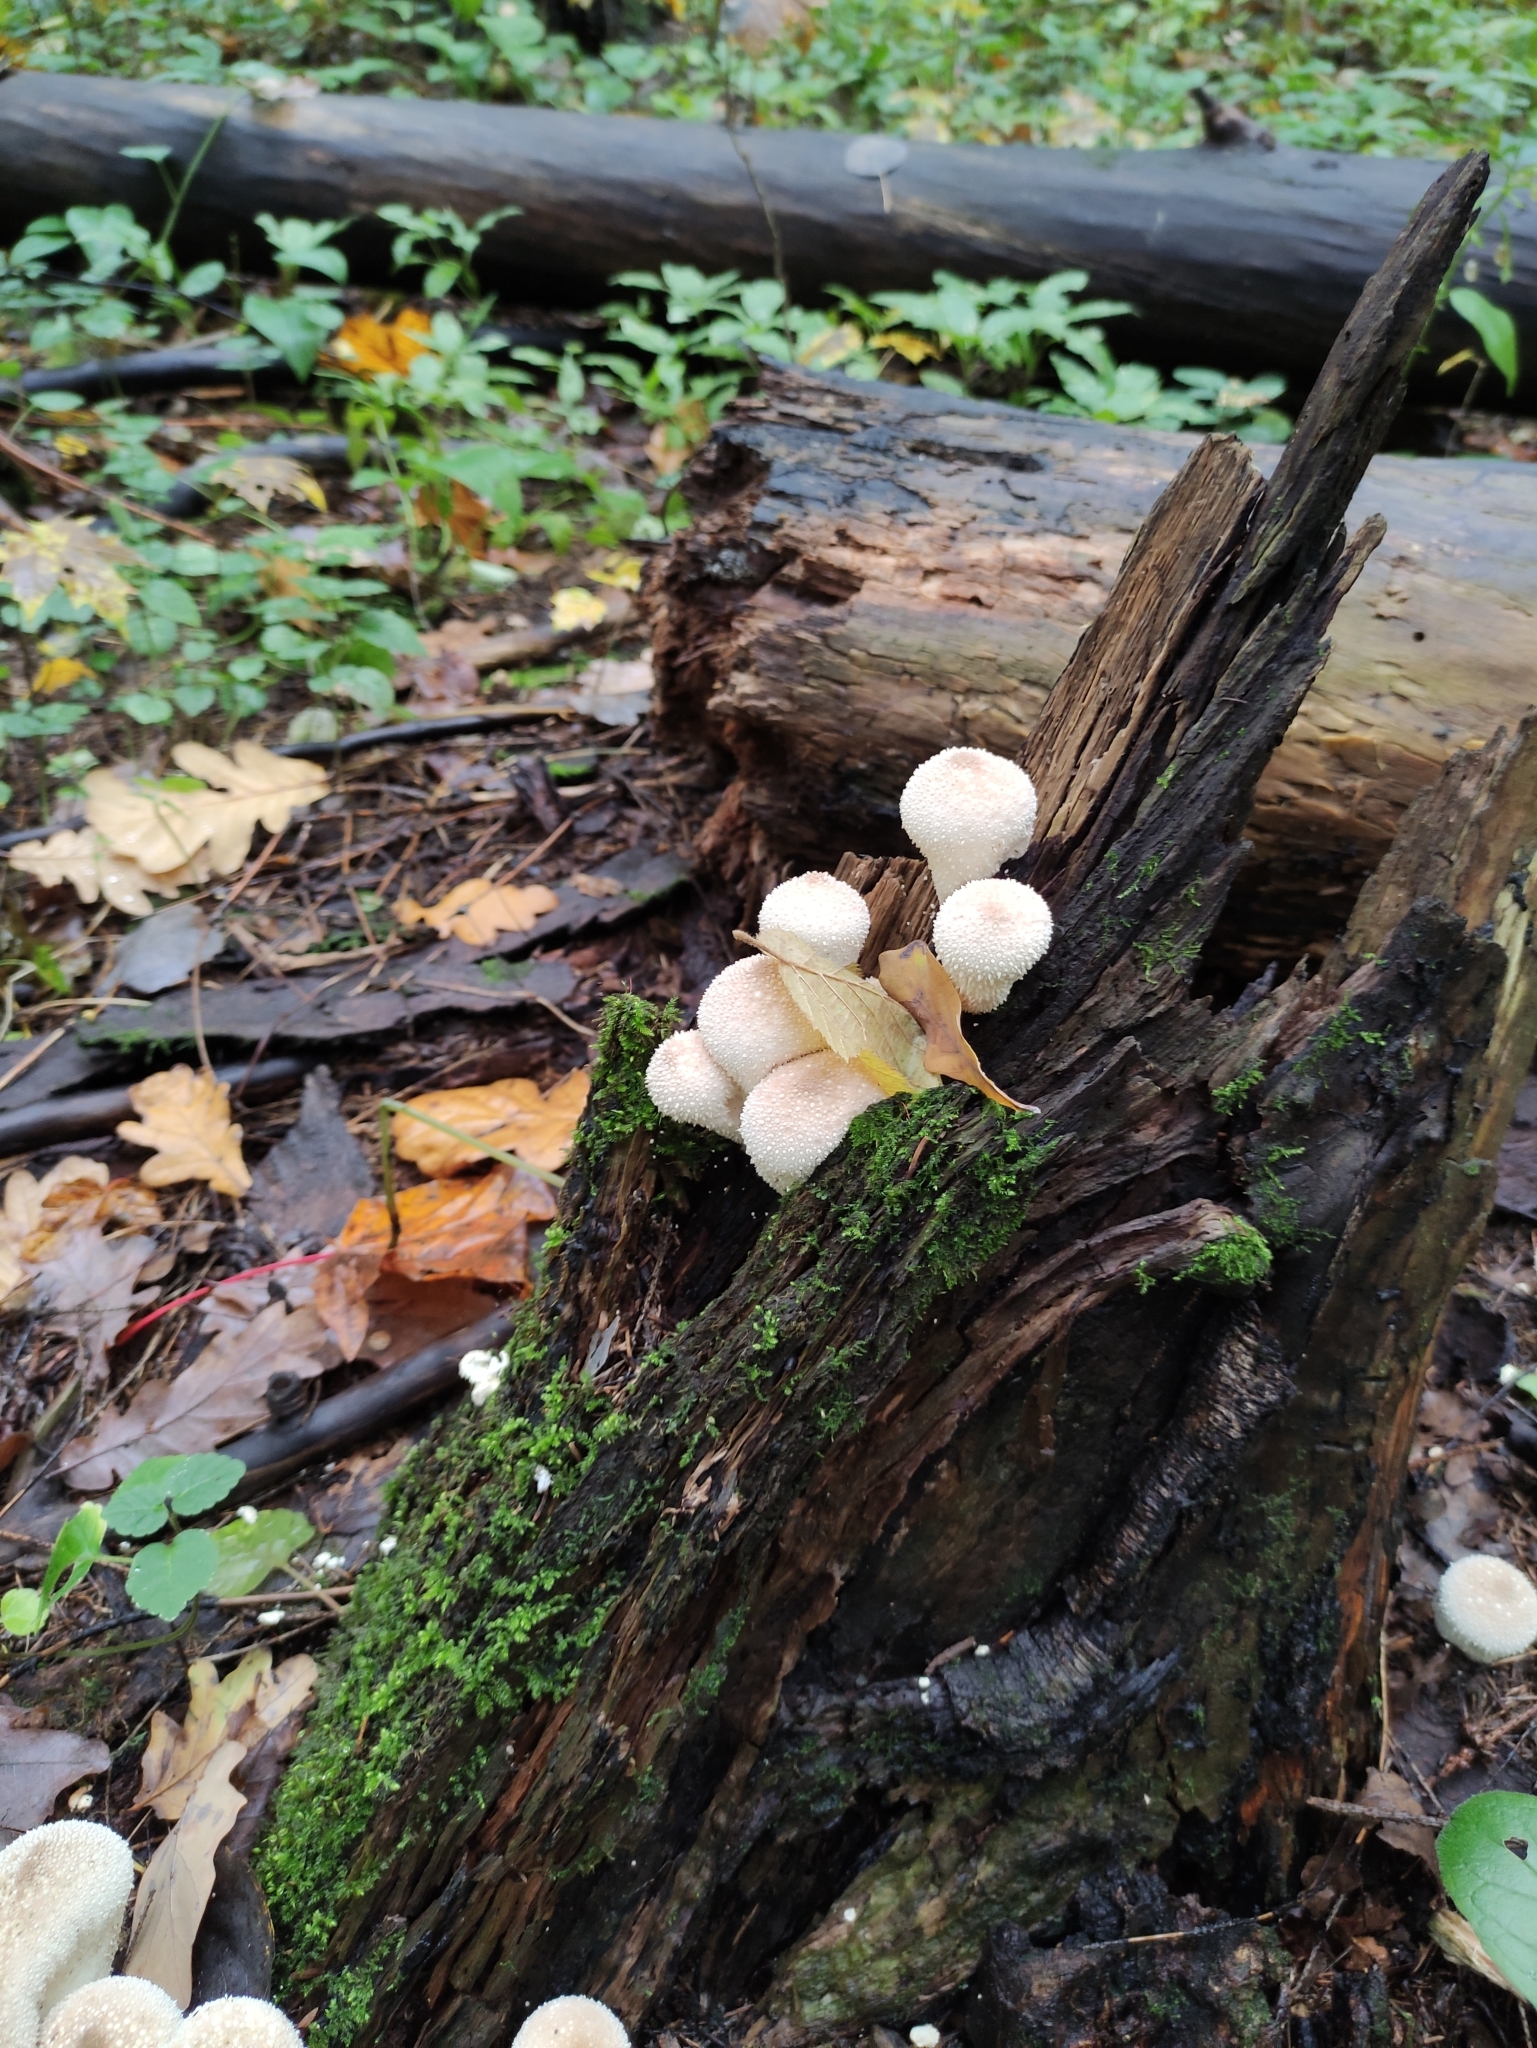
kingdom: Fungi
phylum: Basidiomycota
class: Agaricomycetes
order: Agaricales
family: Lycoperdaceae
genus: Lycoperdon
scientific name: Lycoperdon perlatum
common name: Common puffball
